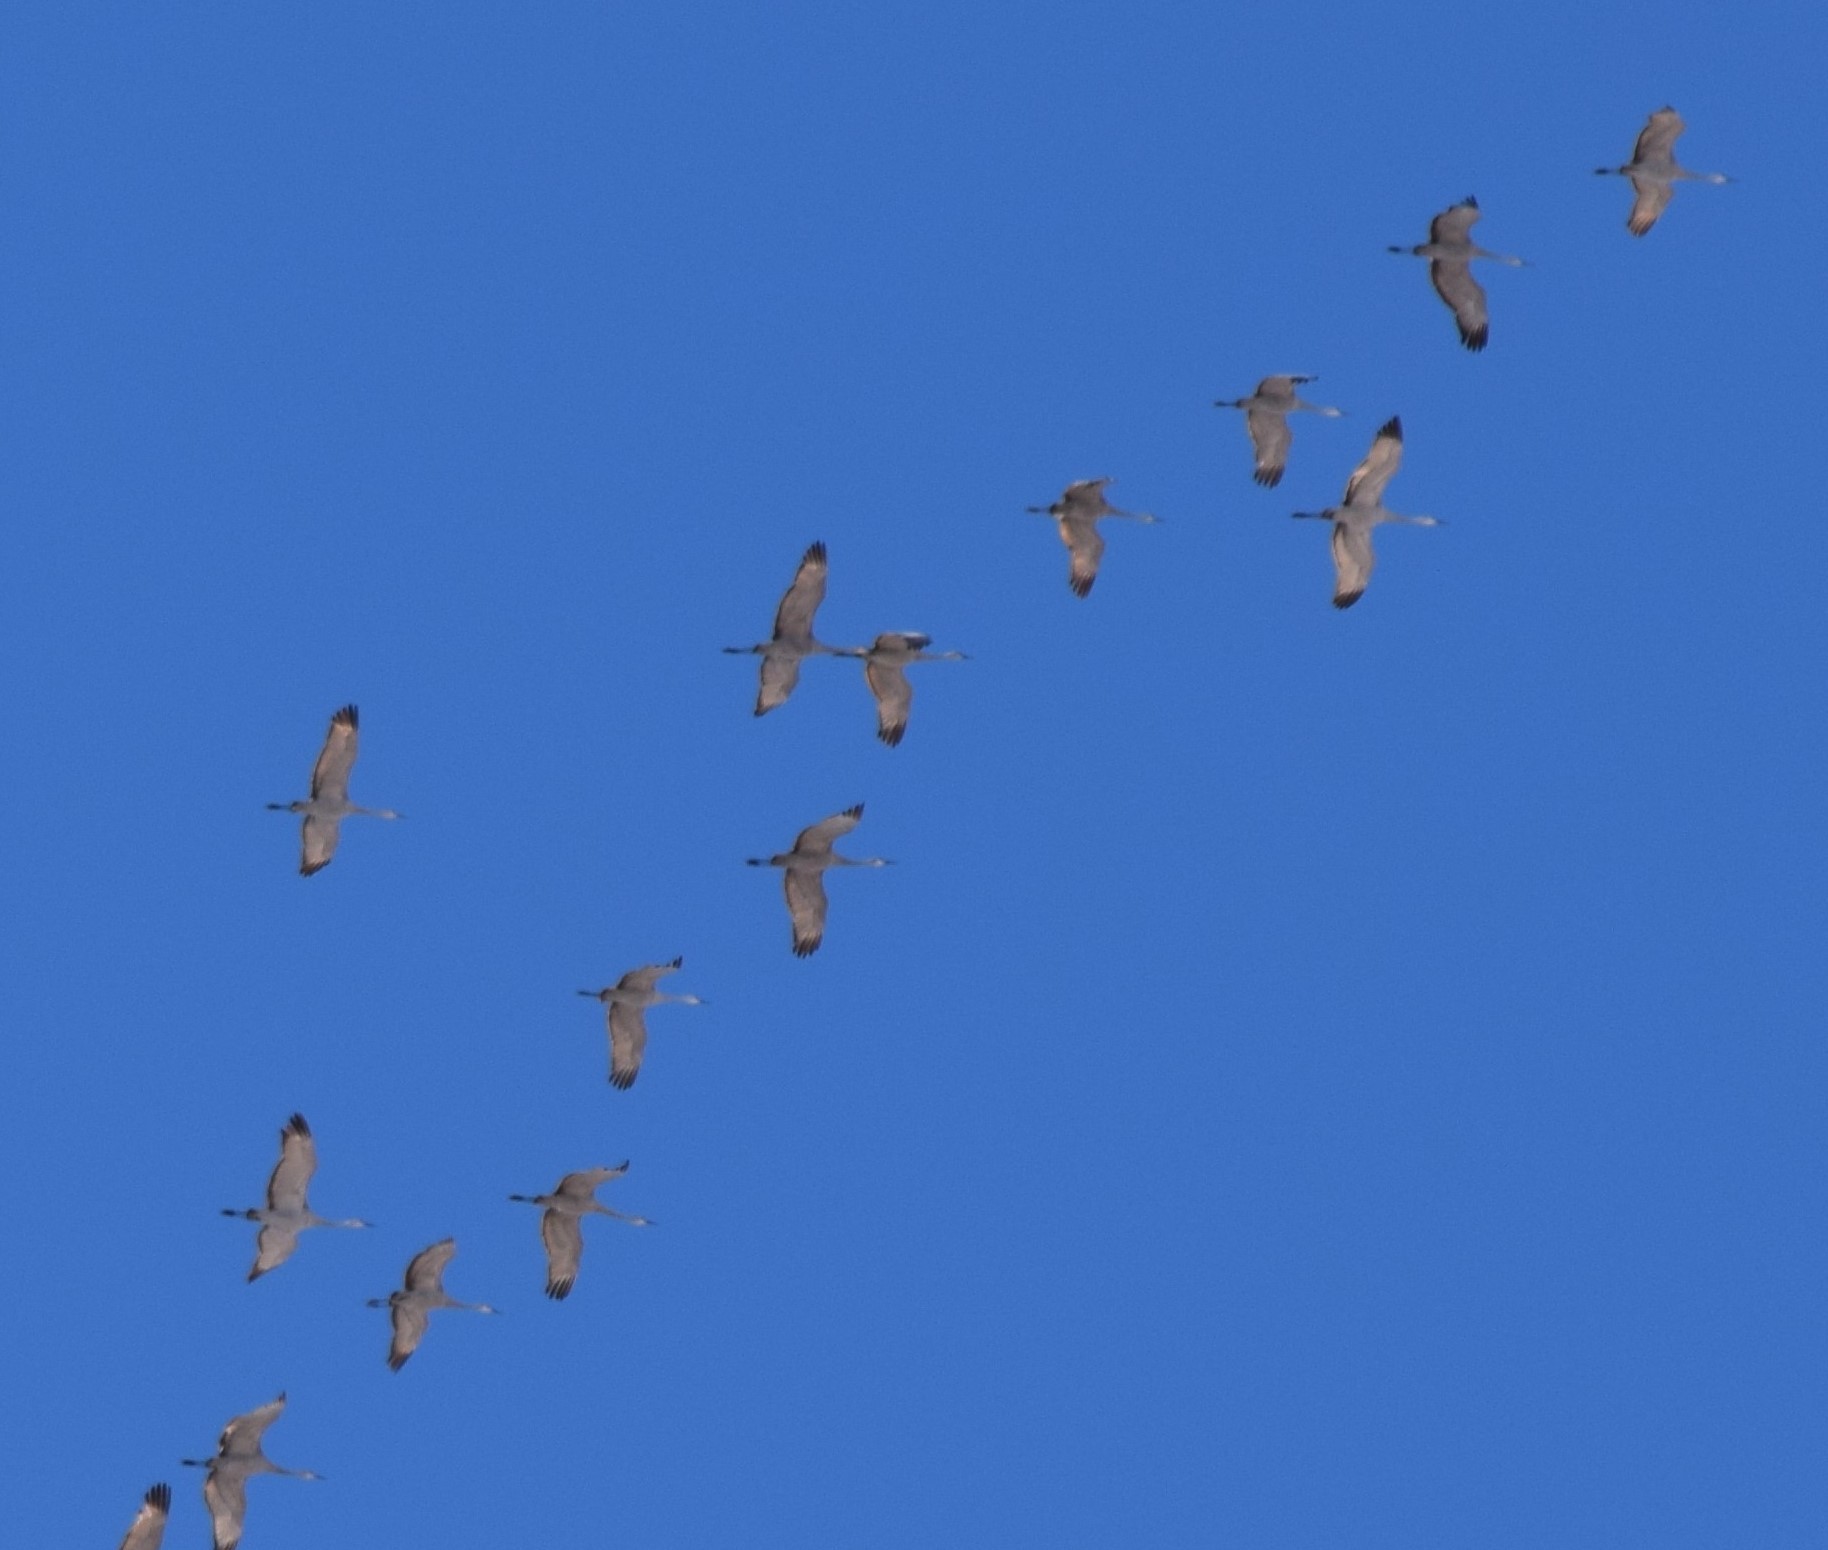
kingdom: Animalia
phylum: Chordata
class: Aves
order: Gruiformes
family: Gruidae
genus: Grus
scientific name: Grus canadensis
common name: Sandhill crane
